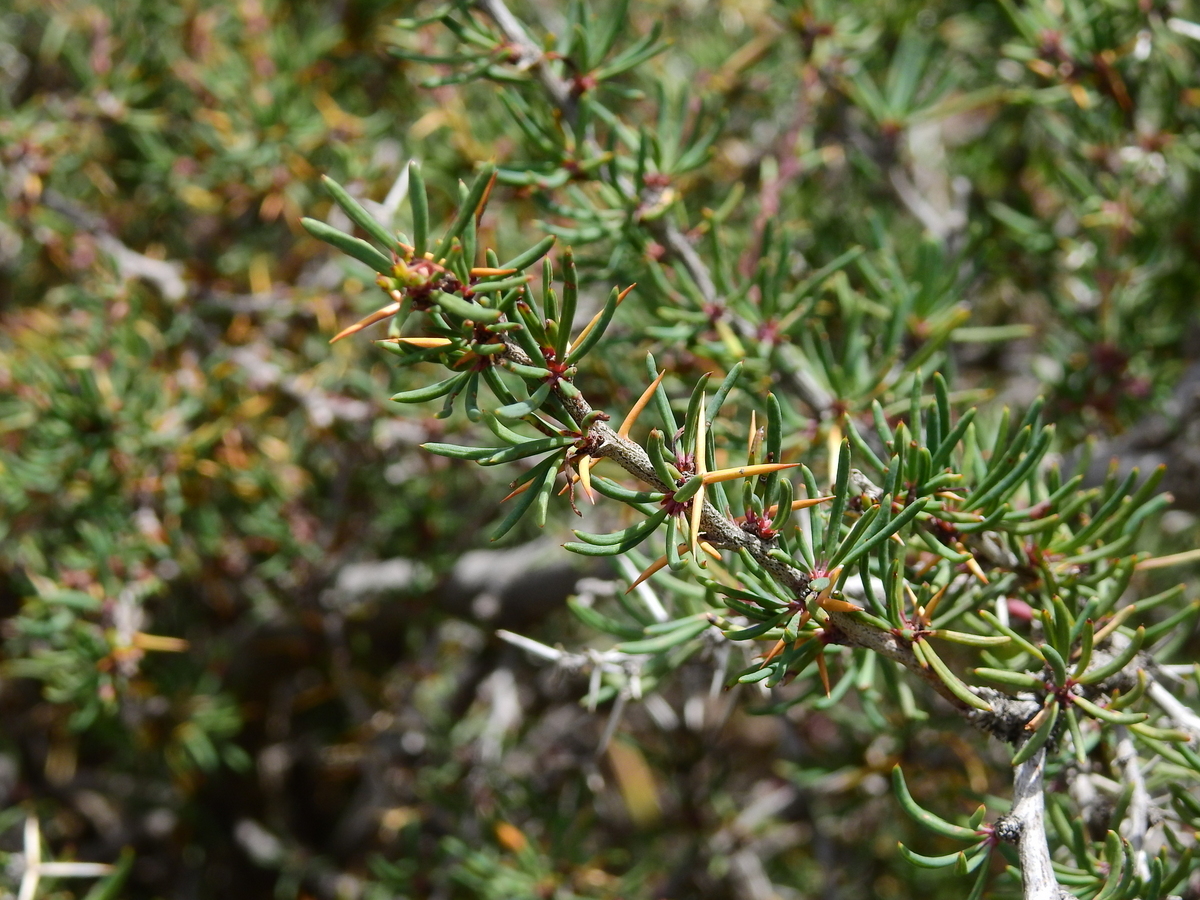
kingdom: Plantae
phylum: Tracheophyta
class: Magnoliopsida
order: Ranunculales
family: Berberidaceae
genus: Berberis
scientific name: Berberis empetrifolia
